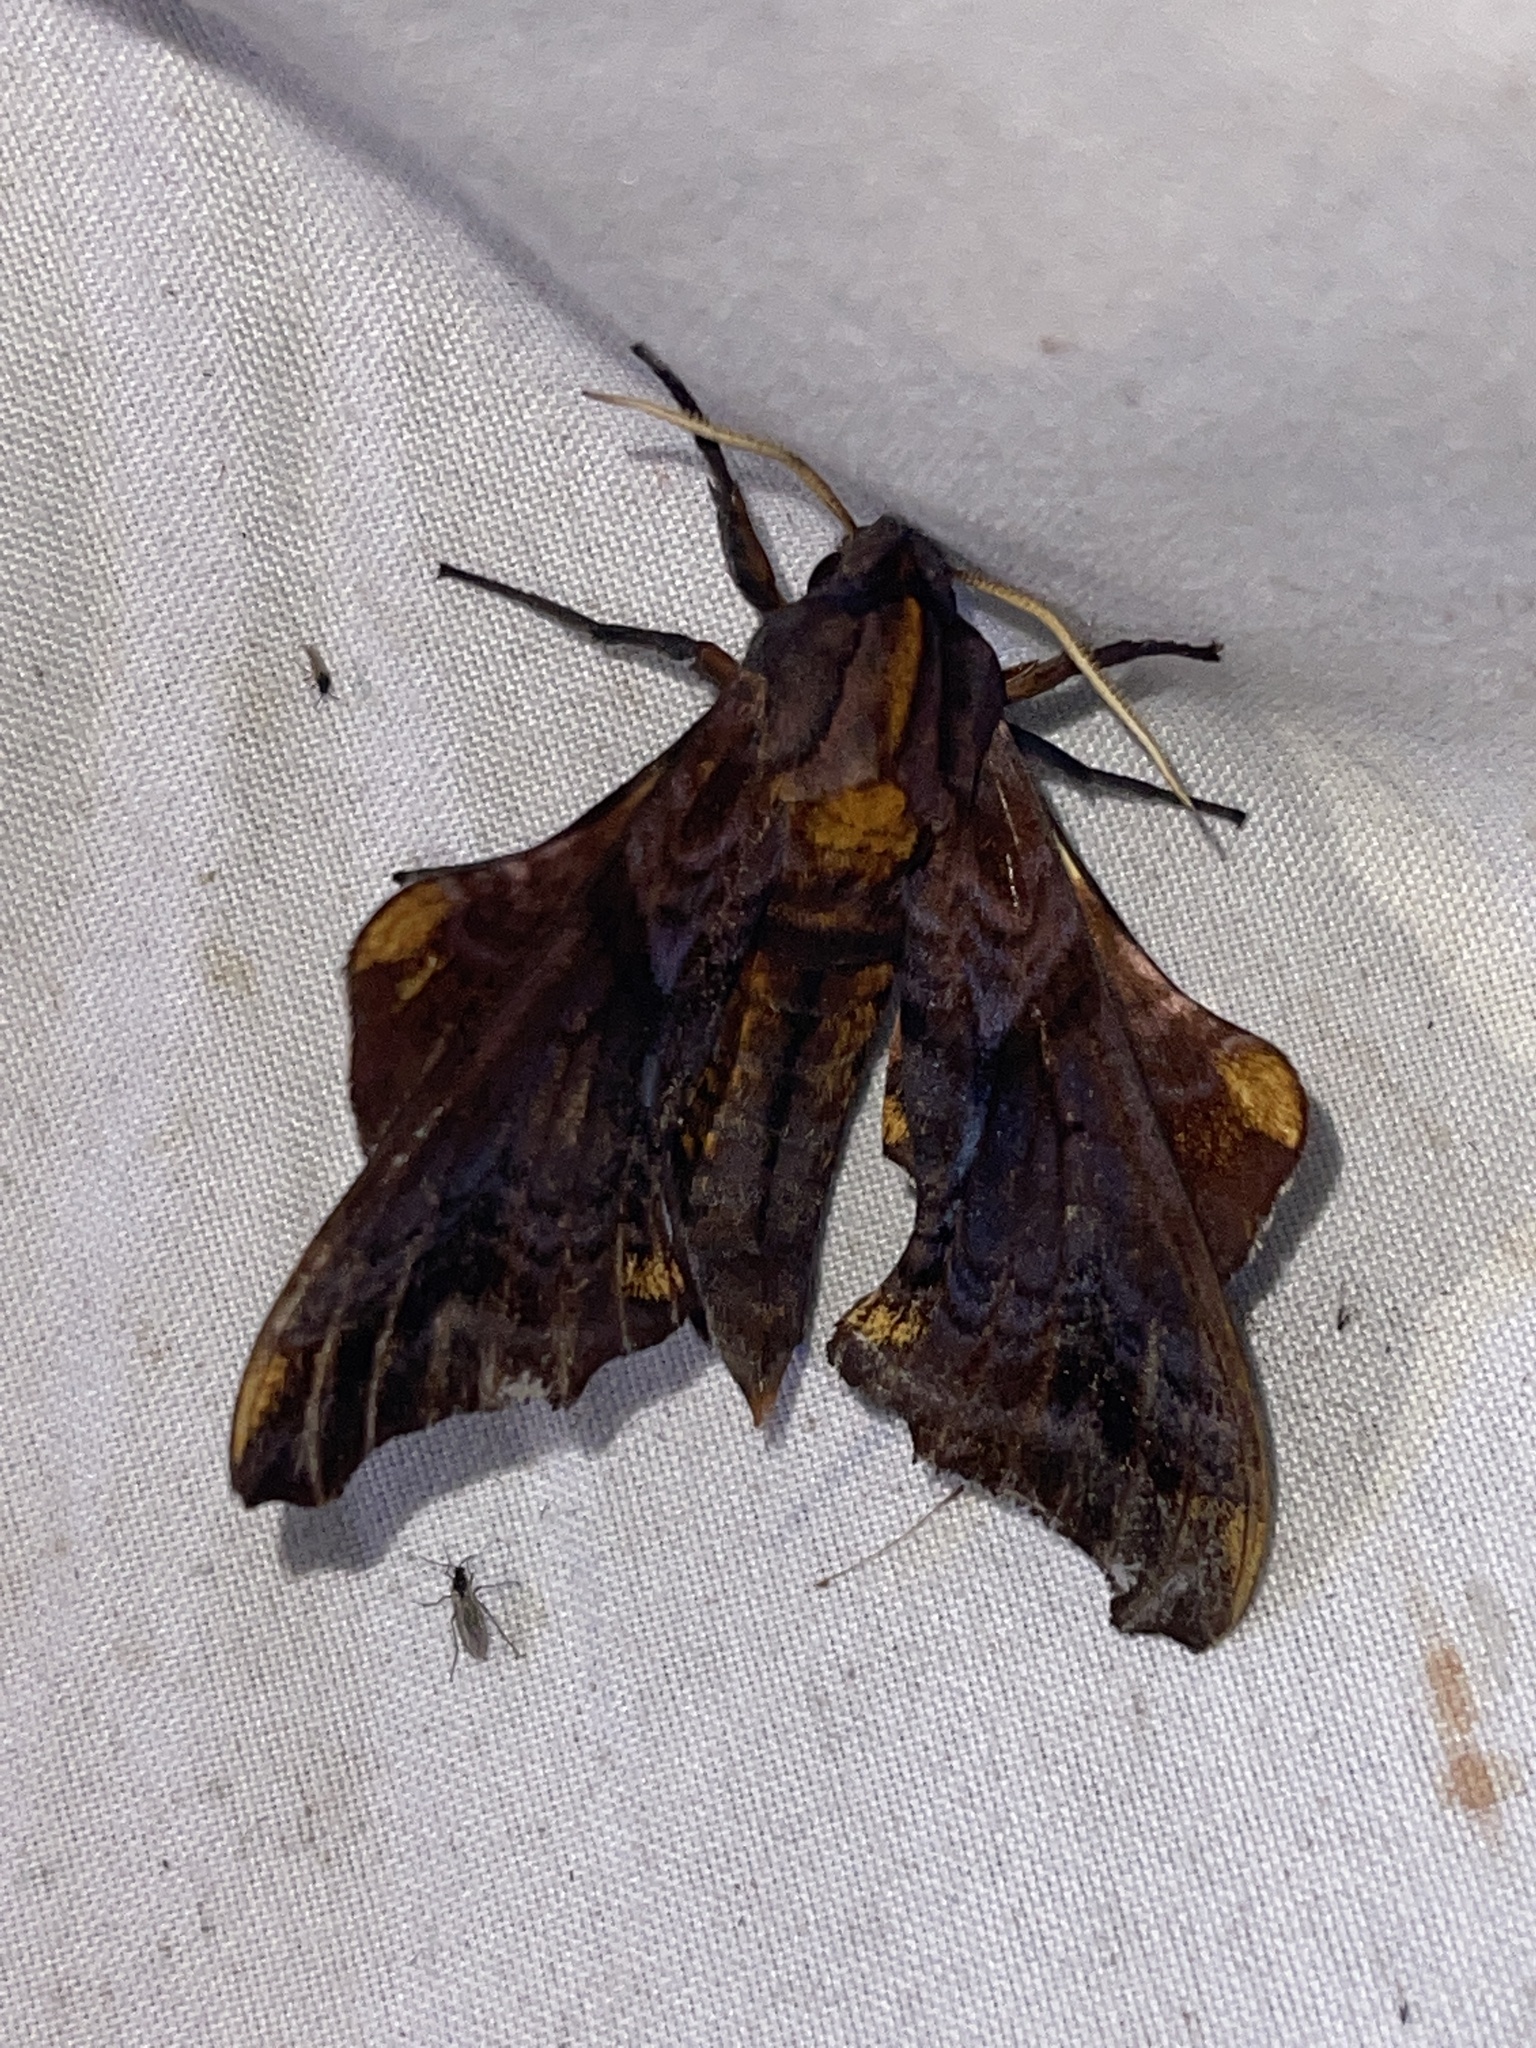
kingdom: Animalia
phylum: Arthropoda
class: Insecta
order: Lepidoptera
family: Sphingidae
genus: Paonias
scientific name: Paonias myops
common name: Small-eyed sphinx
